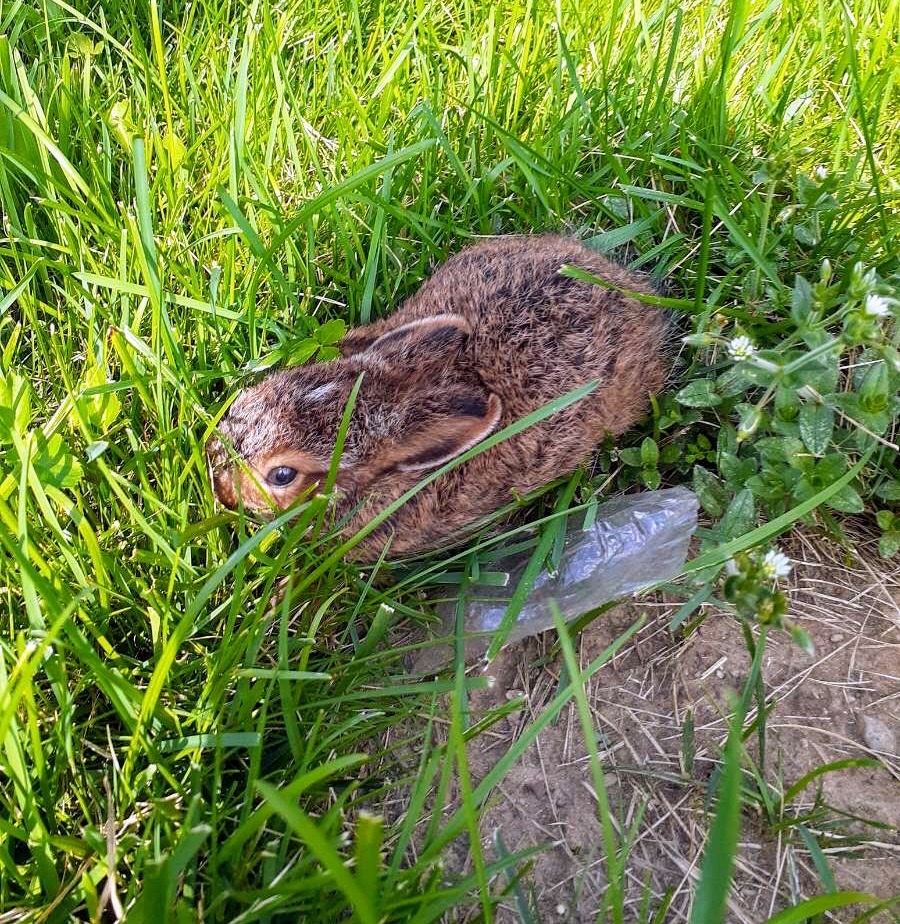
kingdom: Animalia
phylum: Chordata
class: Mammalia
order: Lagomorpha
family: Leporidae
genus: Lepus
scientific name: Lepus americanus
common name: Snowshoe hare
